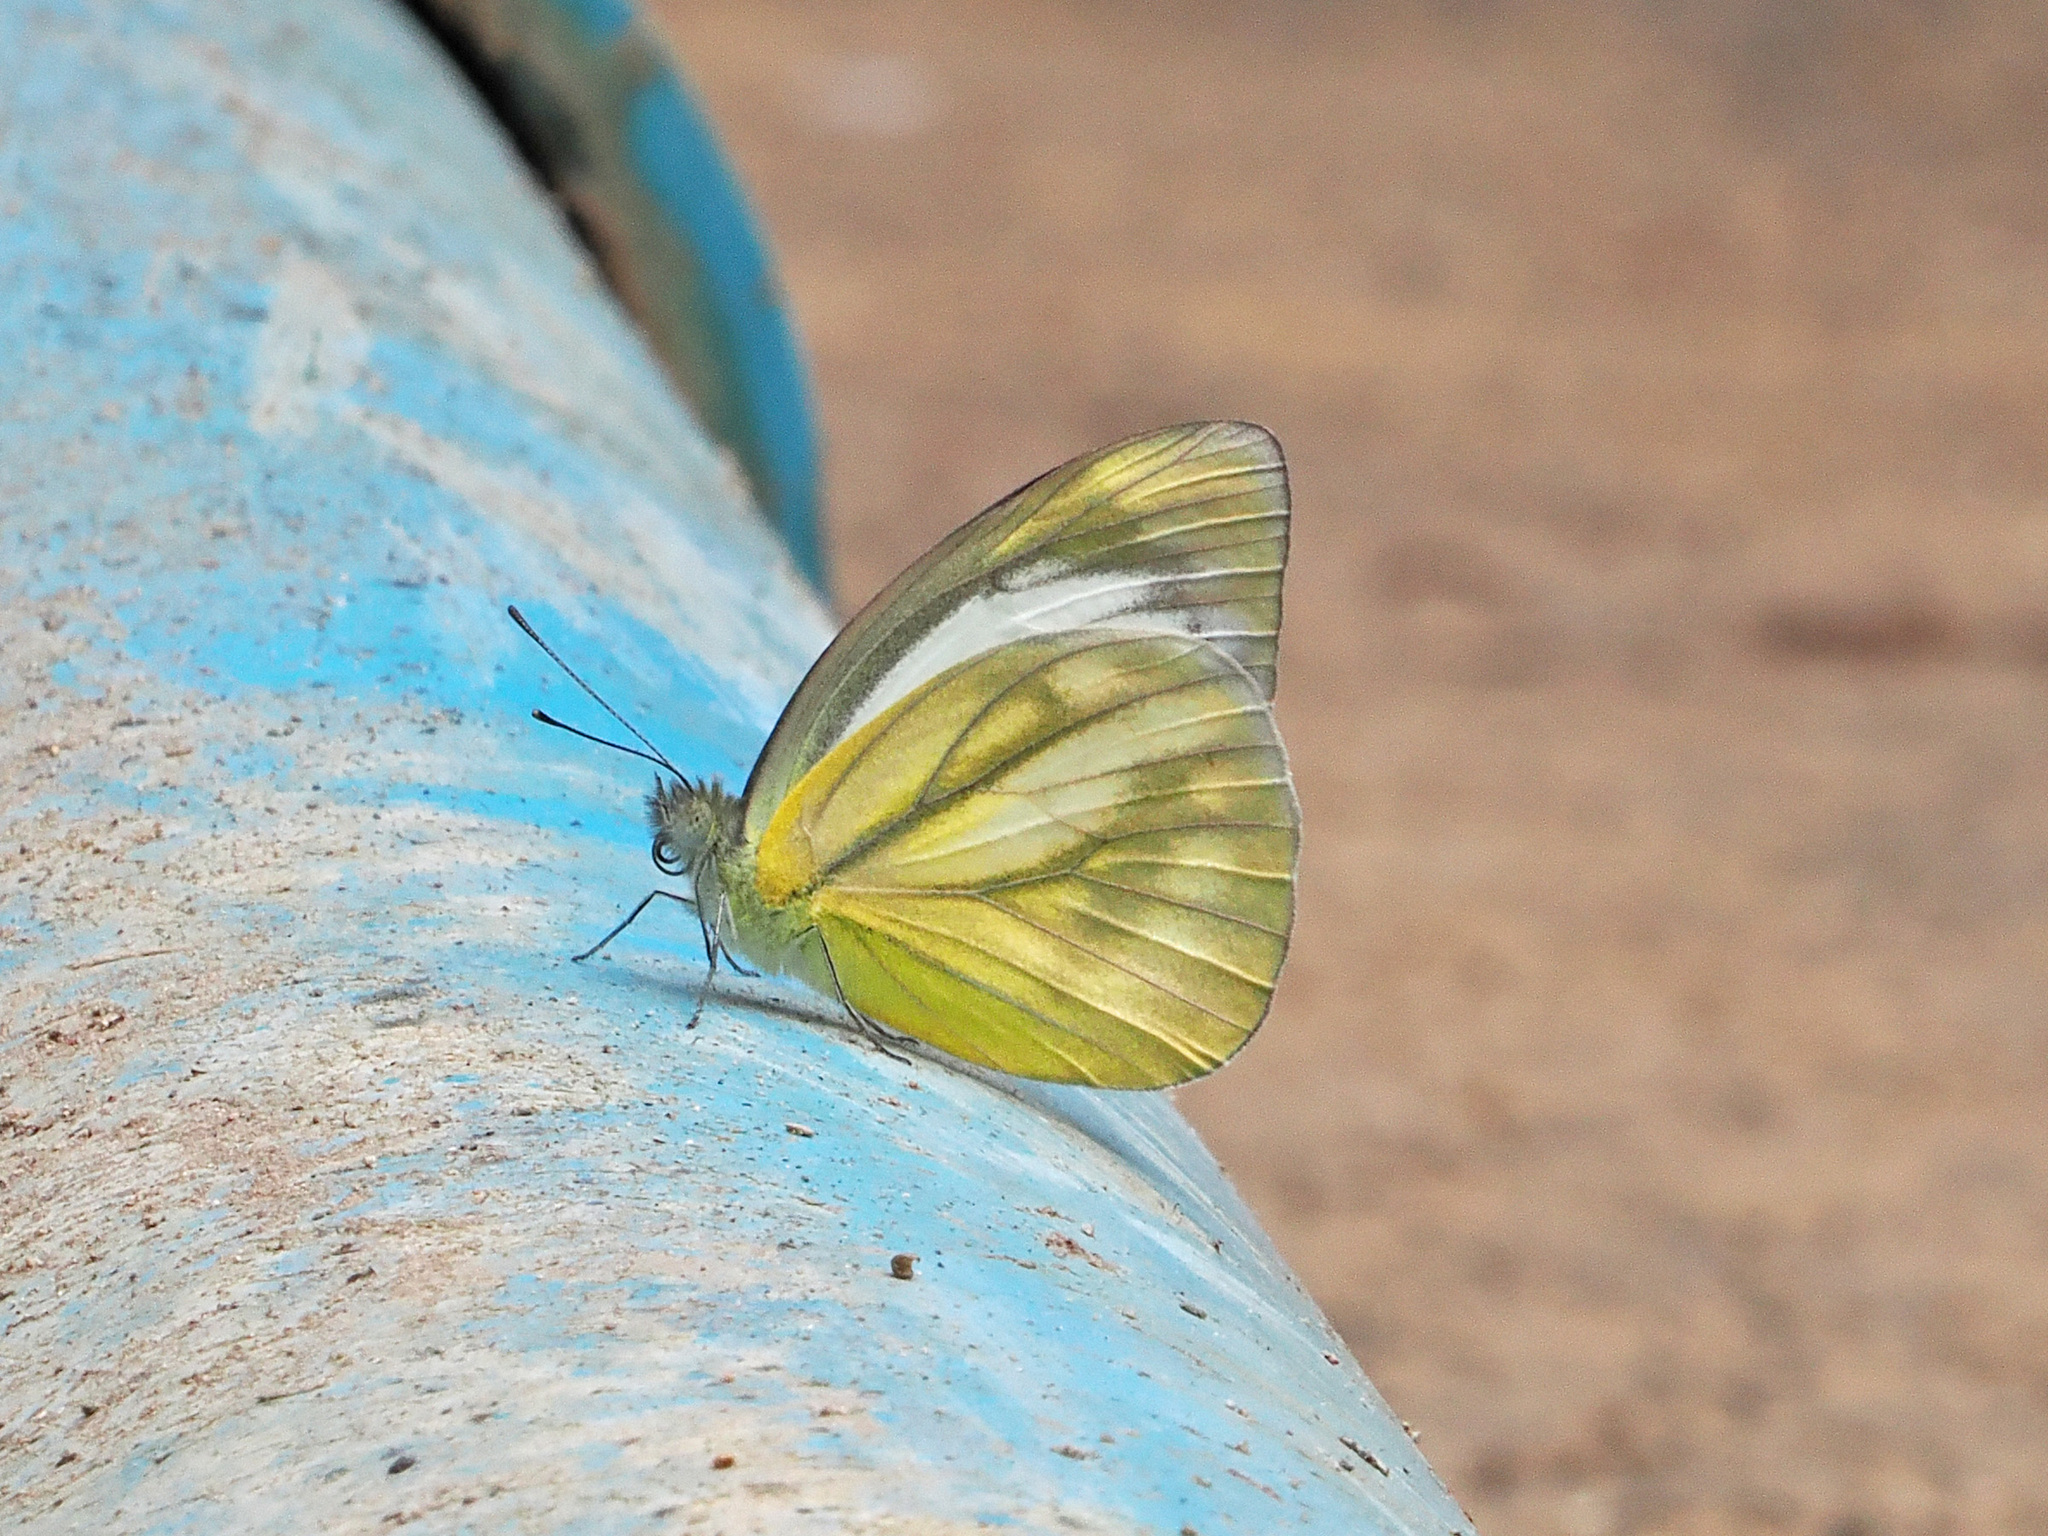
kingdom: Animalia
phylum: Arthropoda
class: Insecta
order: Lepidoptera
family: Pieridae
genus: Cepora
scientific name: Cepora nadina
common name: Lesser gull
